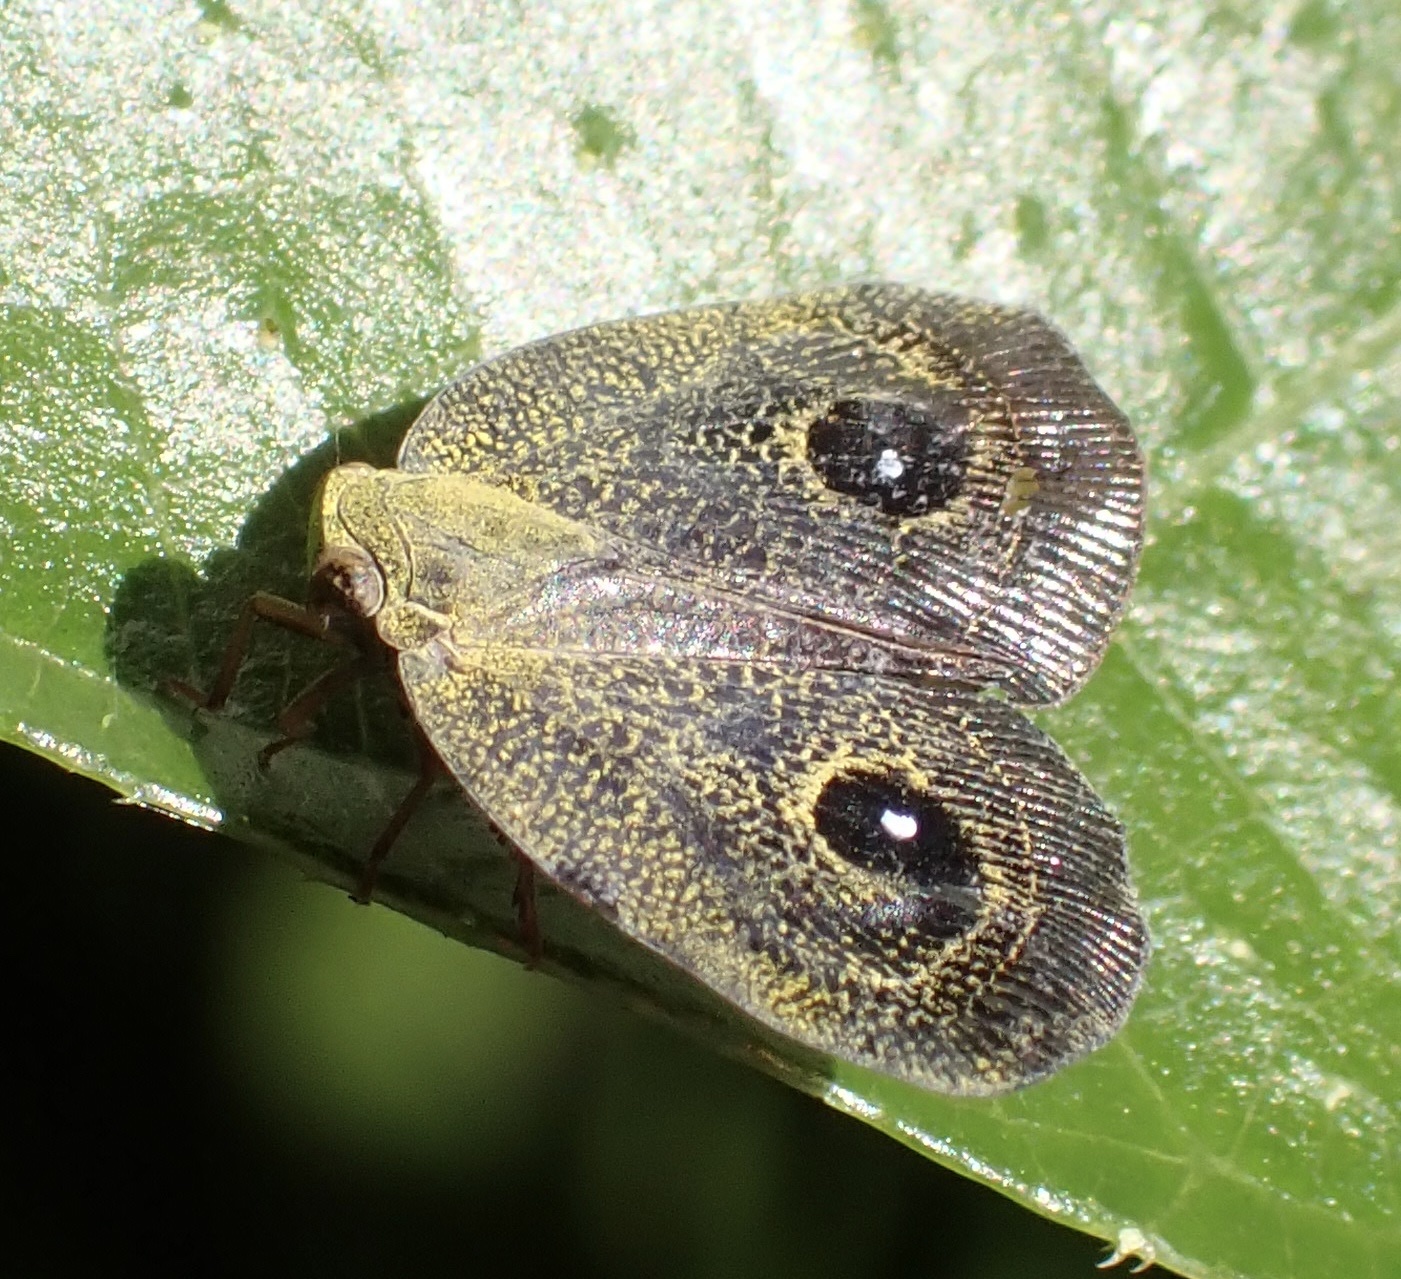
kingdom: Animalia
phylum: Arthropoda
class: Insecta
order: Hemiptera
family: Ricaniidae
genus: Euricania
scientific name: Euricania oculata
